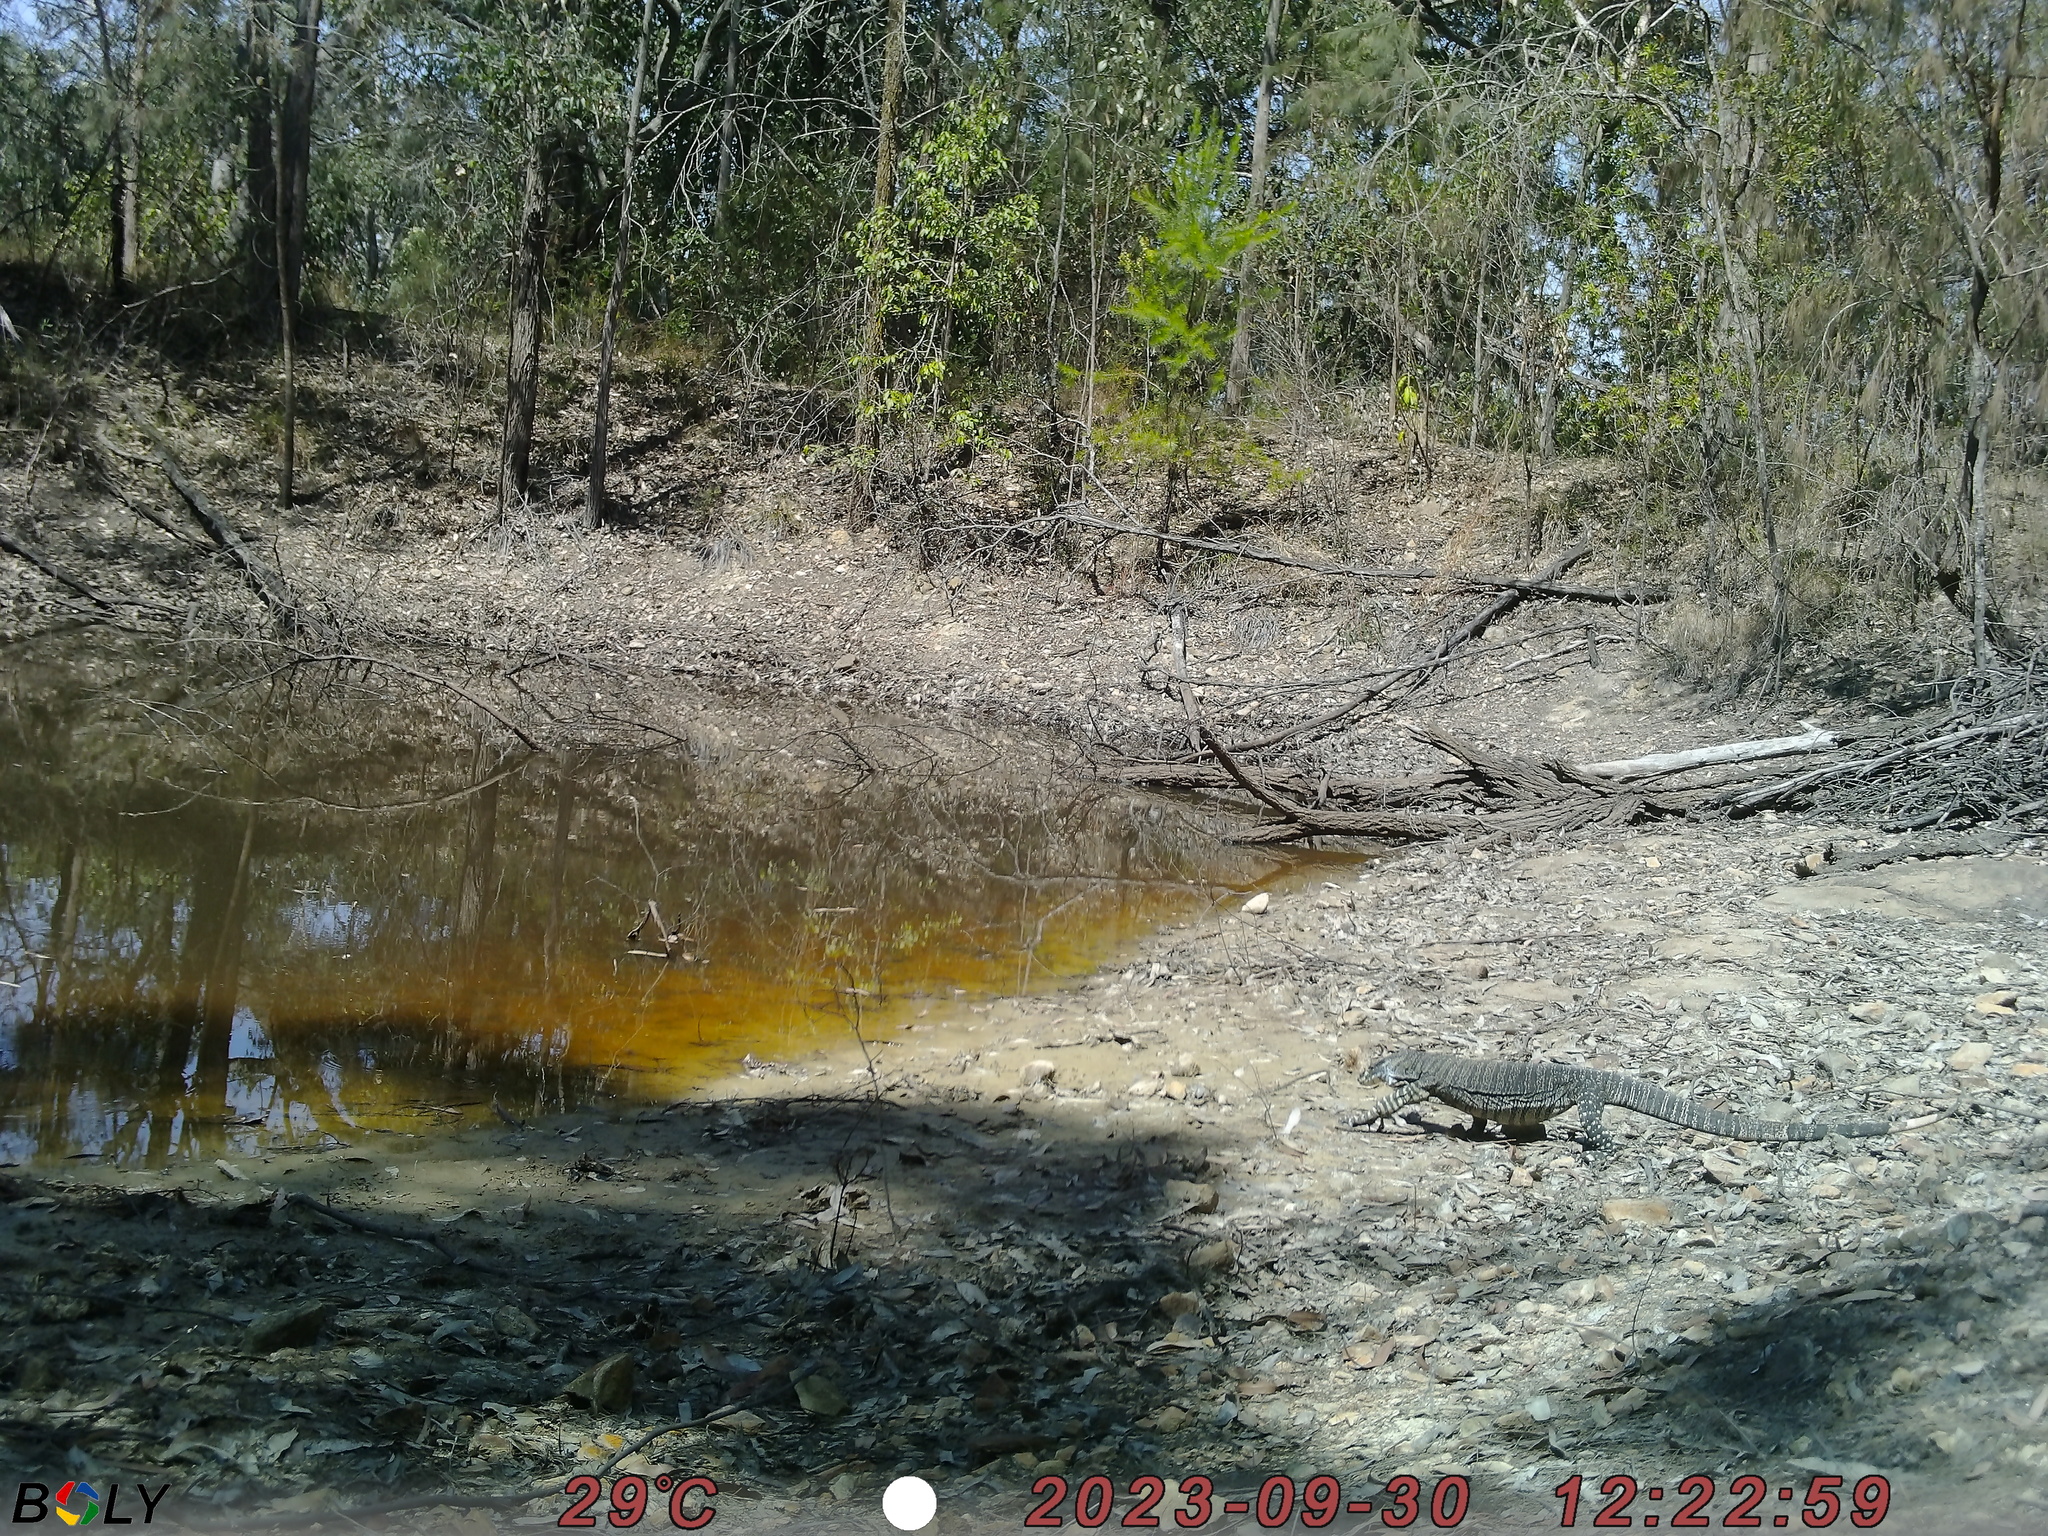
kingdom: Animalia
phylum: Chordata
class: Squamata
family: Varanidae
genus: Varanus
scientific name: Varanus varius
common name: Lace monitor
